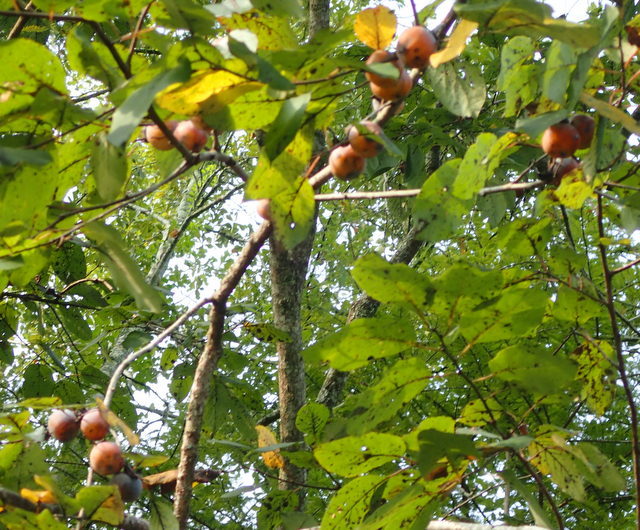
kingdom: Plantae
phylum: Tracheophyta
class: Magnoliopsida
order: Ericales
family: Ebenaceae
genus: Diospyros
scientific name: Diospyros virginiana
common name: Persimmon
